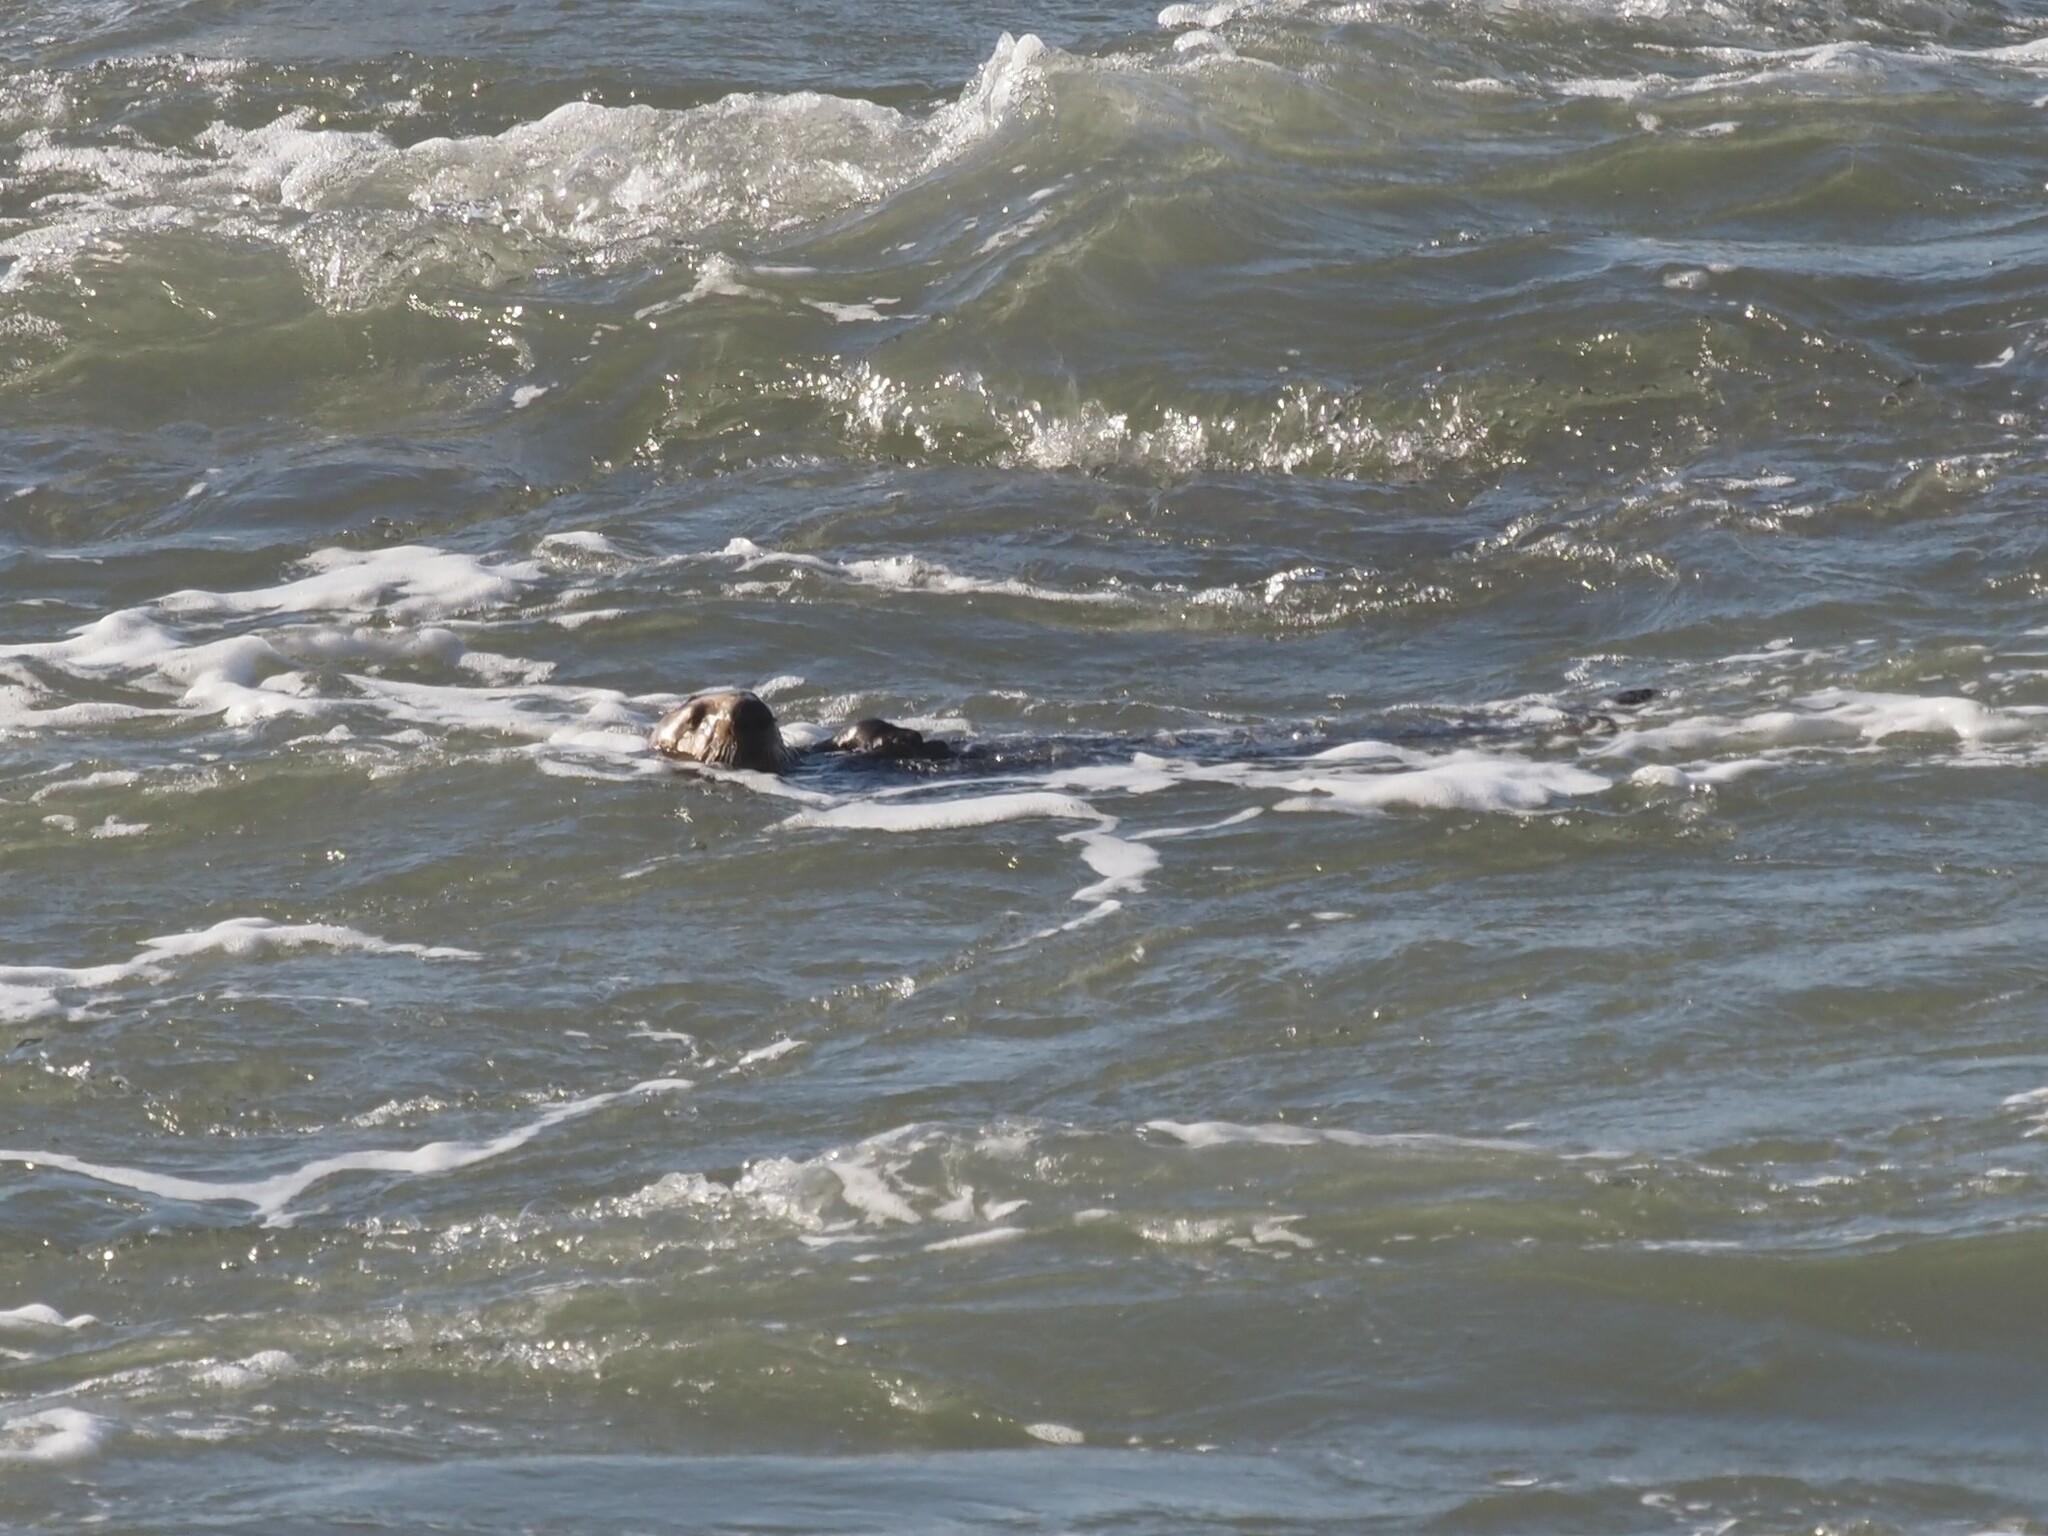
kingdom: Animalia
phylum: Chordata
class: Mammalia
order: Carnivora
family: Mustelidae
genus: Enhydra
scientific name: Enhydra lutris
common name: Sea otter
